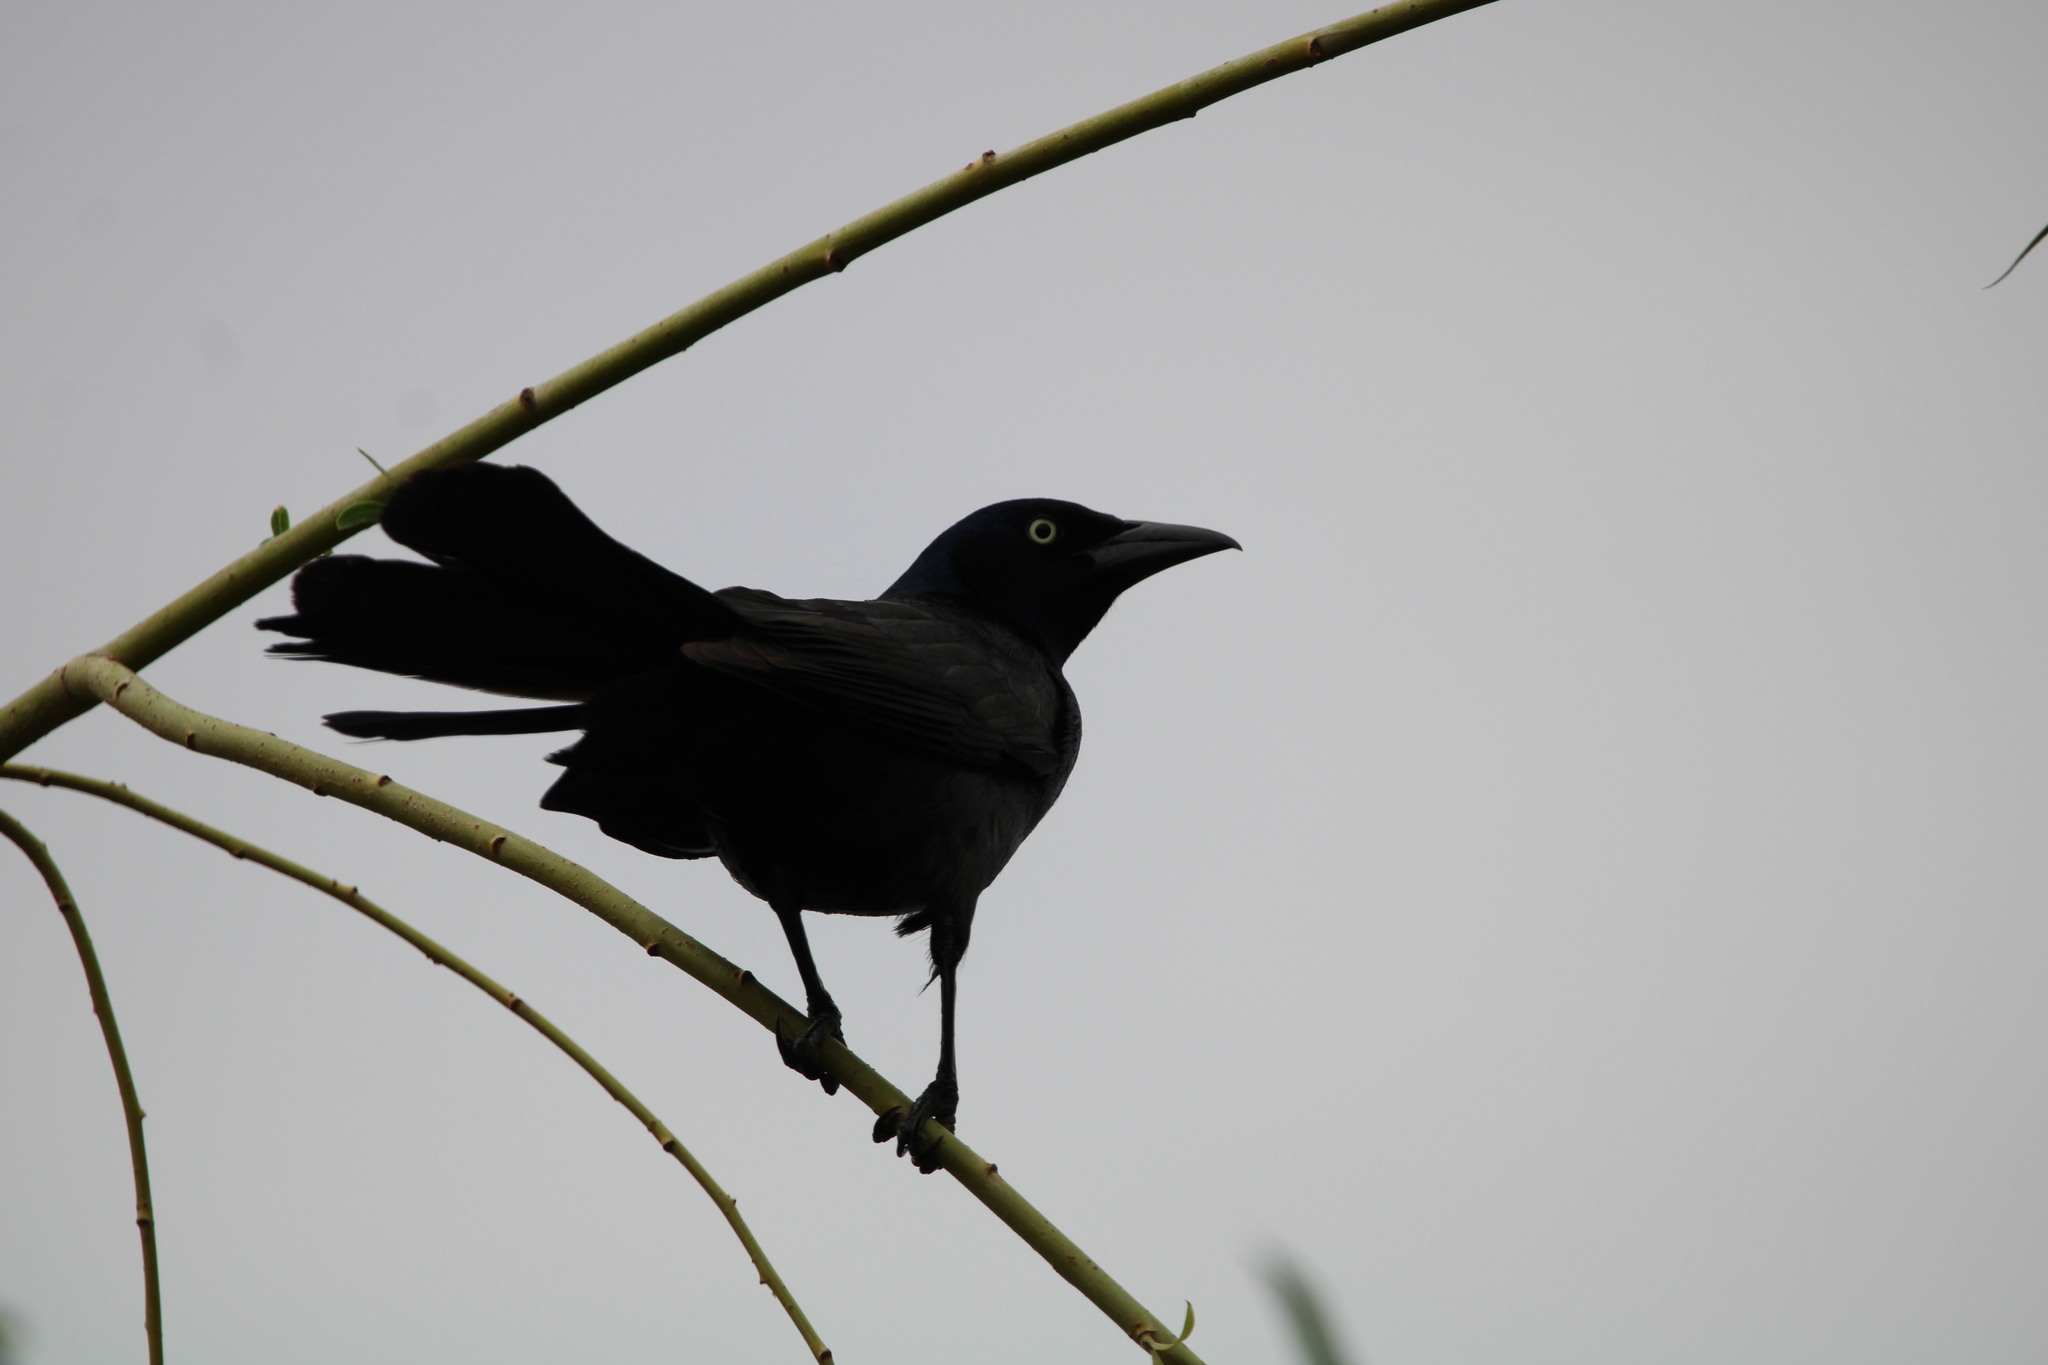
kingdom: Animalia
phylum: Chordata
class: Aves
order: Passeriformes
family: Icteridae
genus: Quiscalus
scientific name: Quiscalus quiscula
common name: Common grackle
